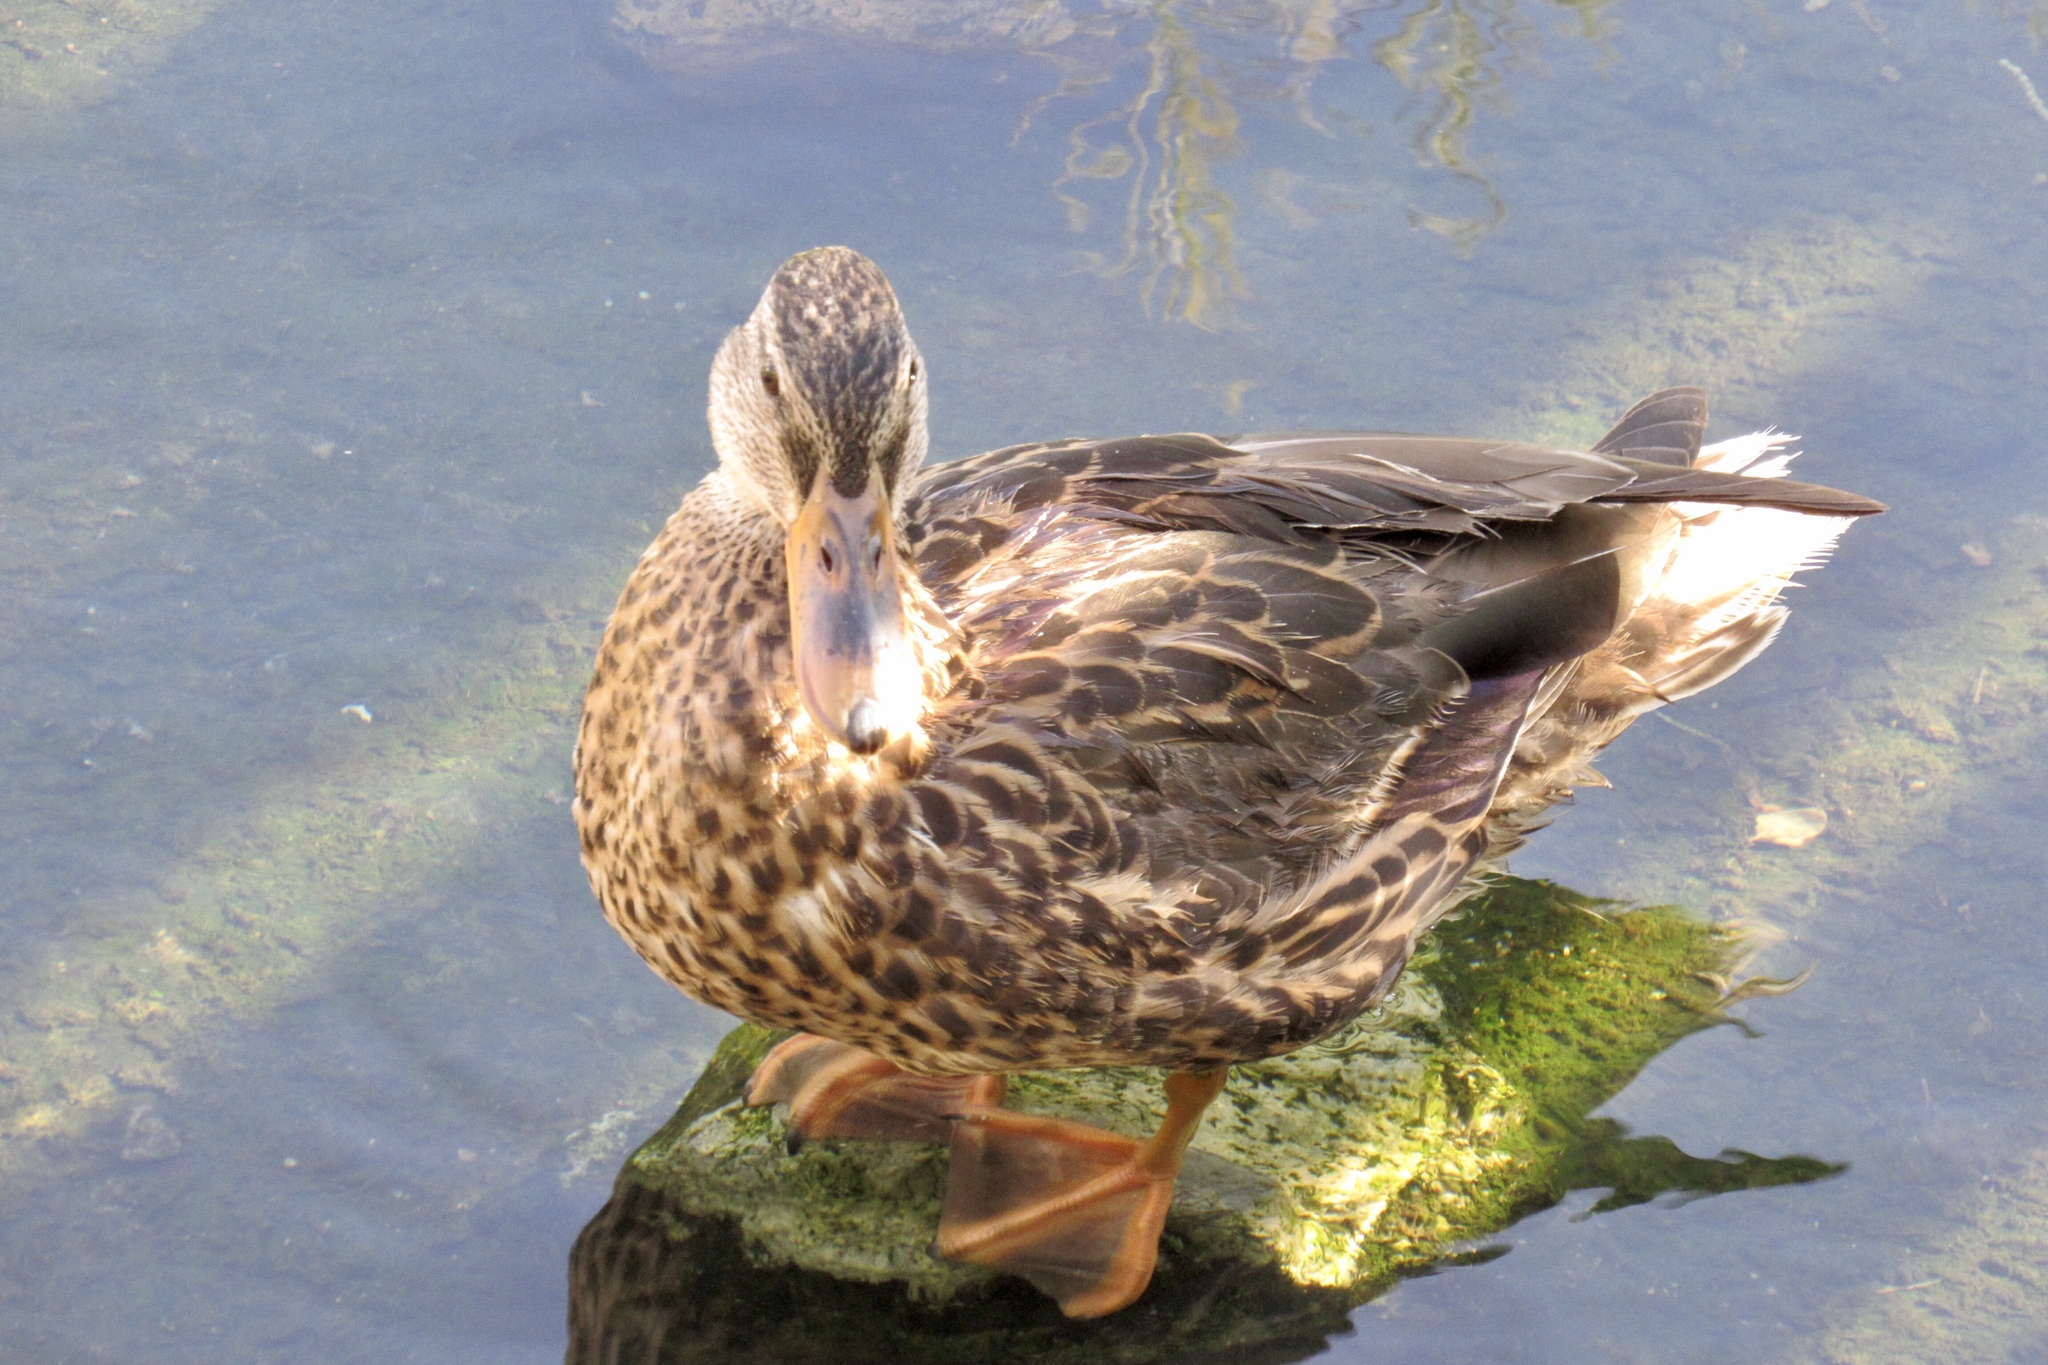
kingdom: Animalia
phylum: Chordata
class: Aves
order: Anseriformes
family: Anatidae
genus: Anas
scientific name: Anas platyrhynchos
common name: Mallard
